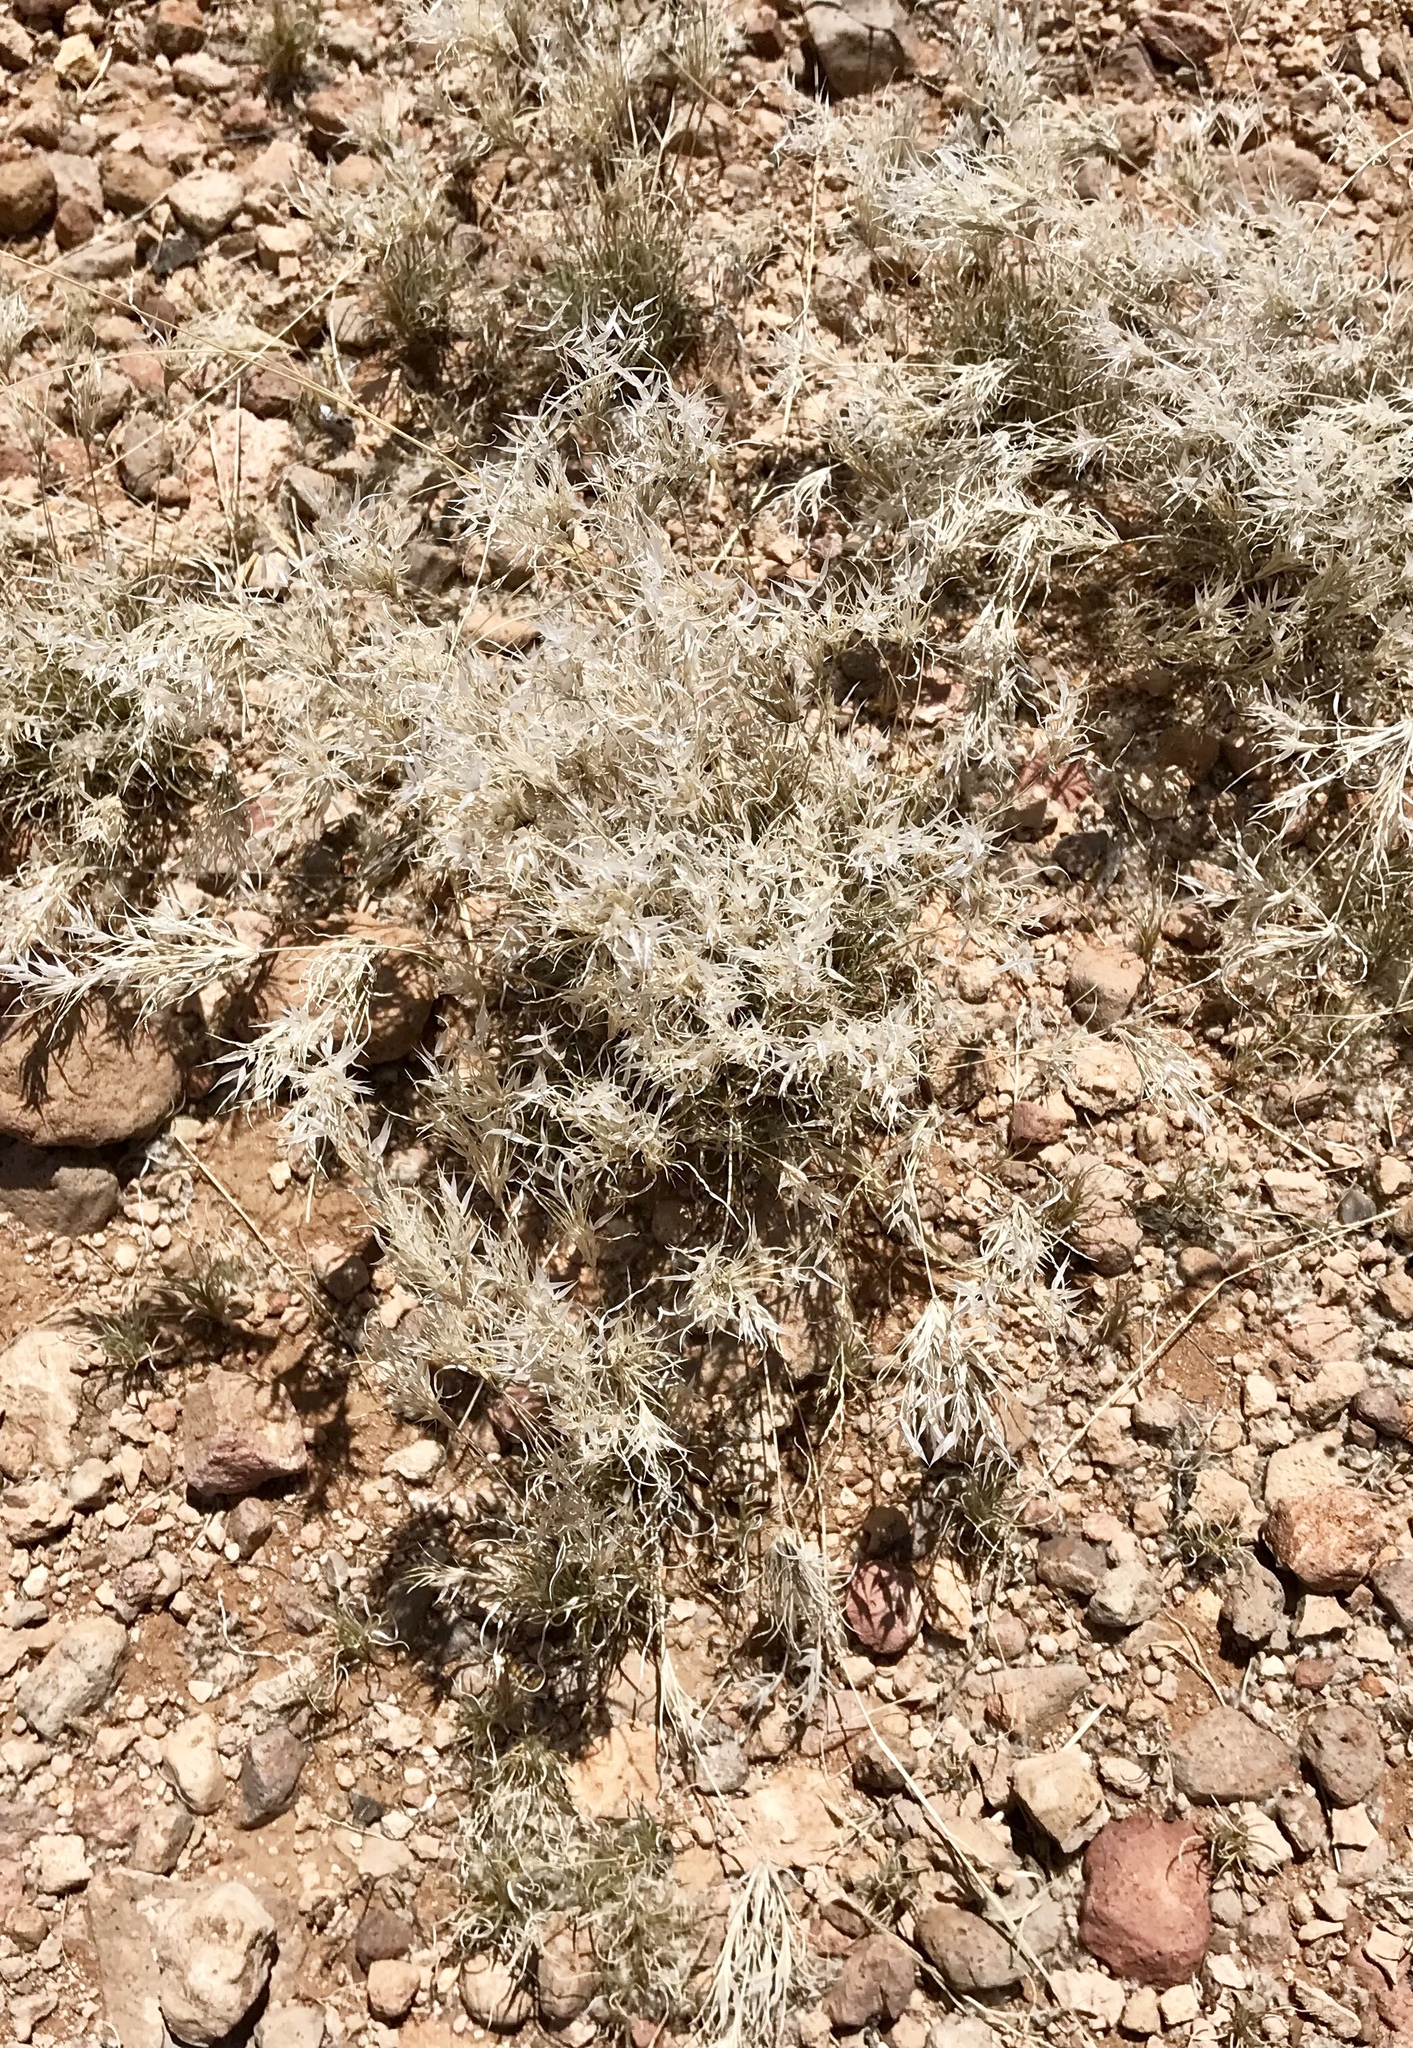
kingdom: Plantae
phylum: Tracheophyta
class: Liliopsida
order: Poales
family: Poaceae
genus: Dasyochloa
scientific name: Dasyochloa pulchella
